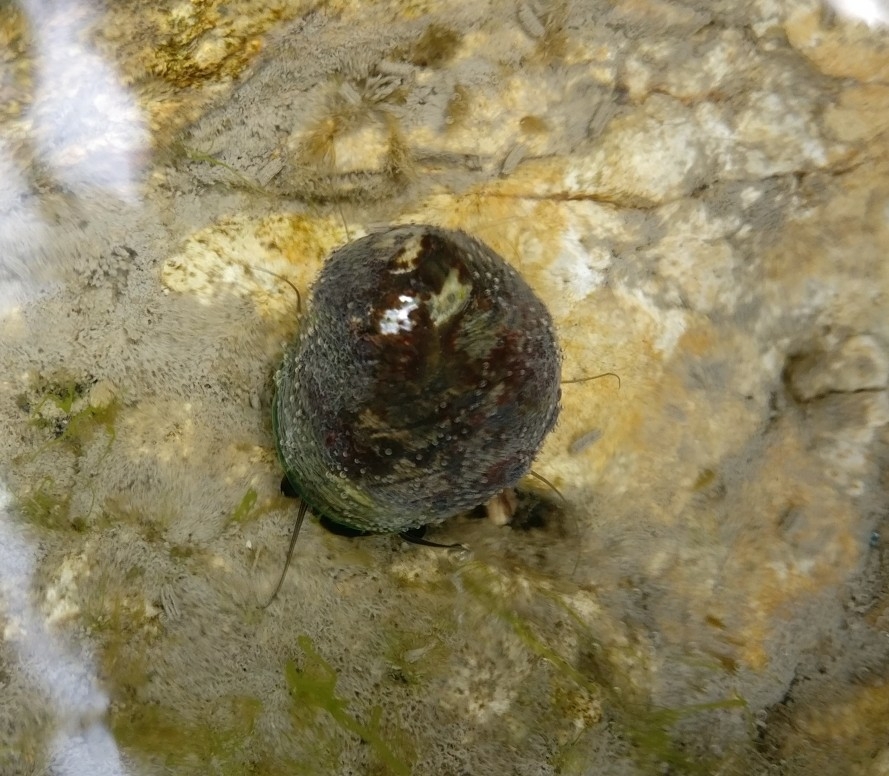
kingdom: Animalia
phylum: Mollusca
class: Gastropoda
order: Trochida
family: Trochidae
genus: Diloma
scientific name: Diloma aethiops
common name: Scorched monodont
